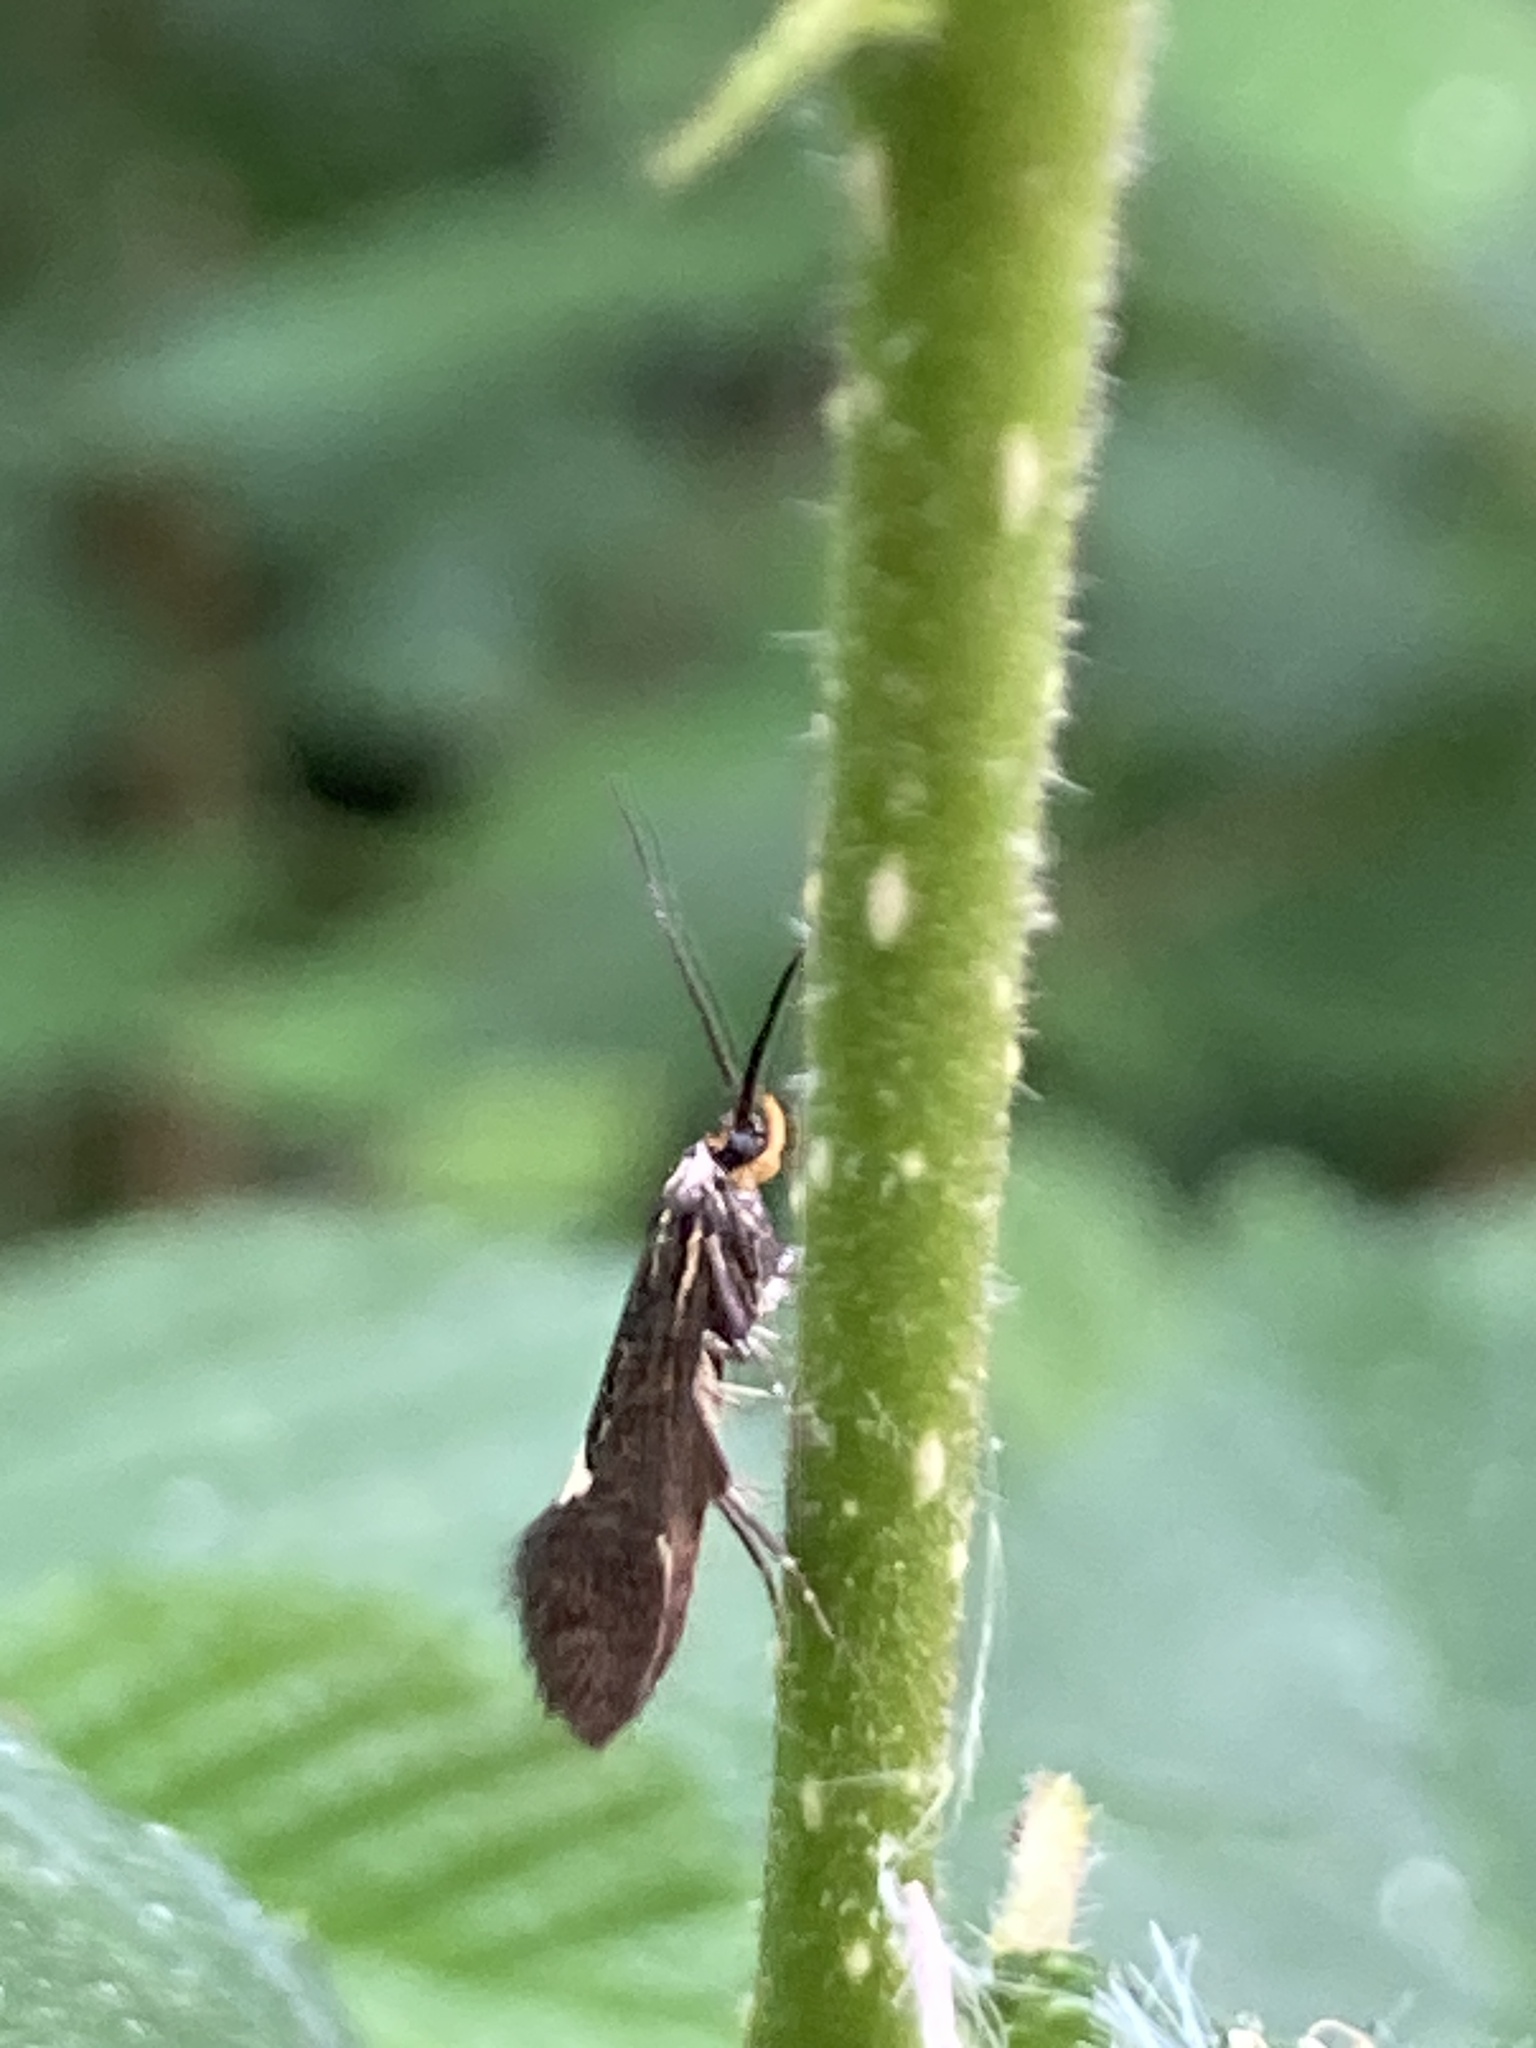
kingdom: Animalia
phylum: Arthropoda
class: Insecta
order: Lepidoptera
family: Oecophoridae
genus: Dafa
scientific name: Dafa Esperia sulphurella
